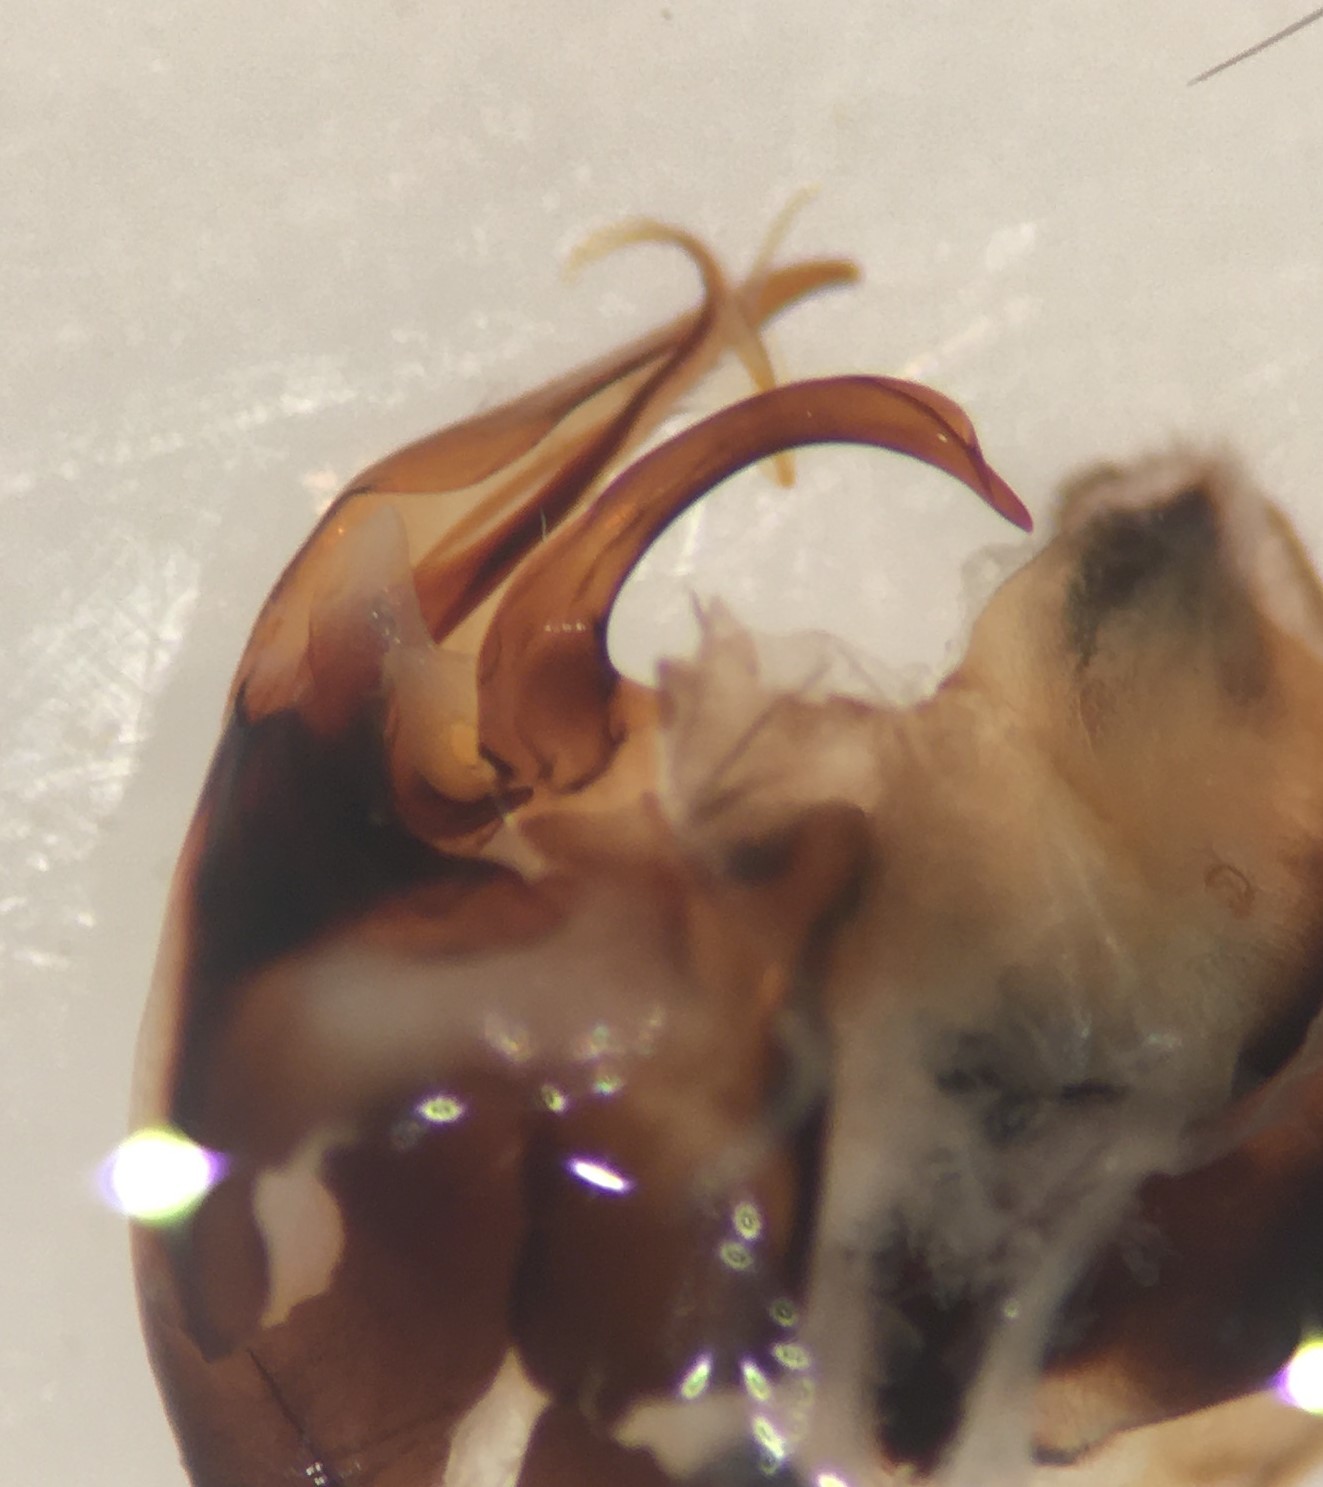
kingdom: Animalia
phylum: Arthropoda
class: Insecta
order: Hemiptera
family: Corixidae
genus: Hesperocorixa
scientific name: Hesperocorixa interrupta
